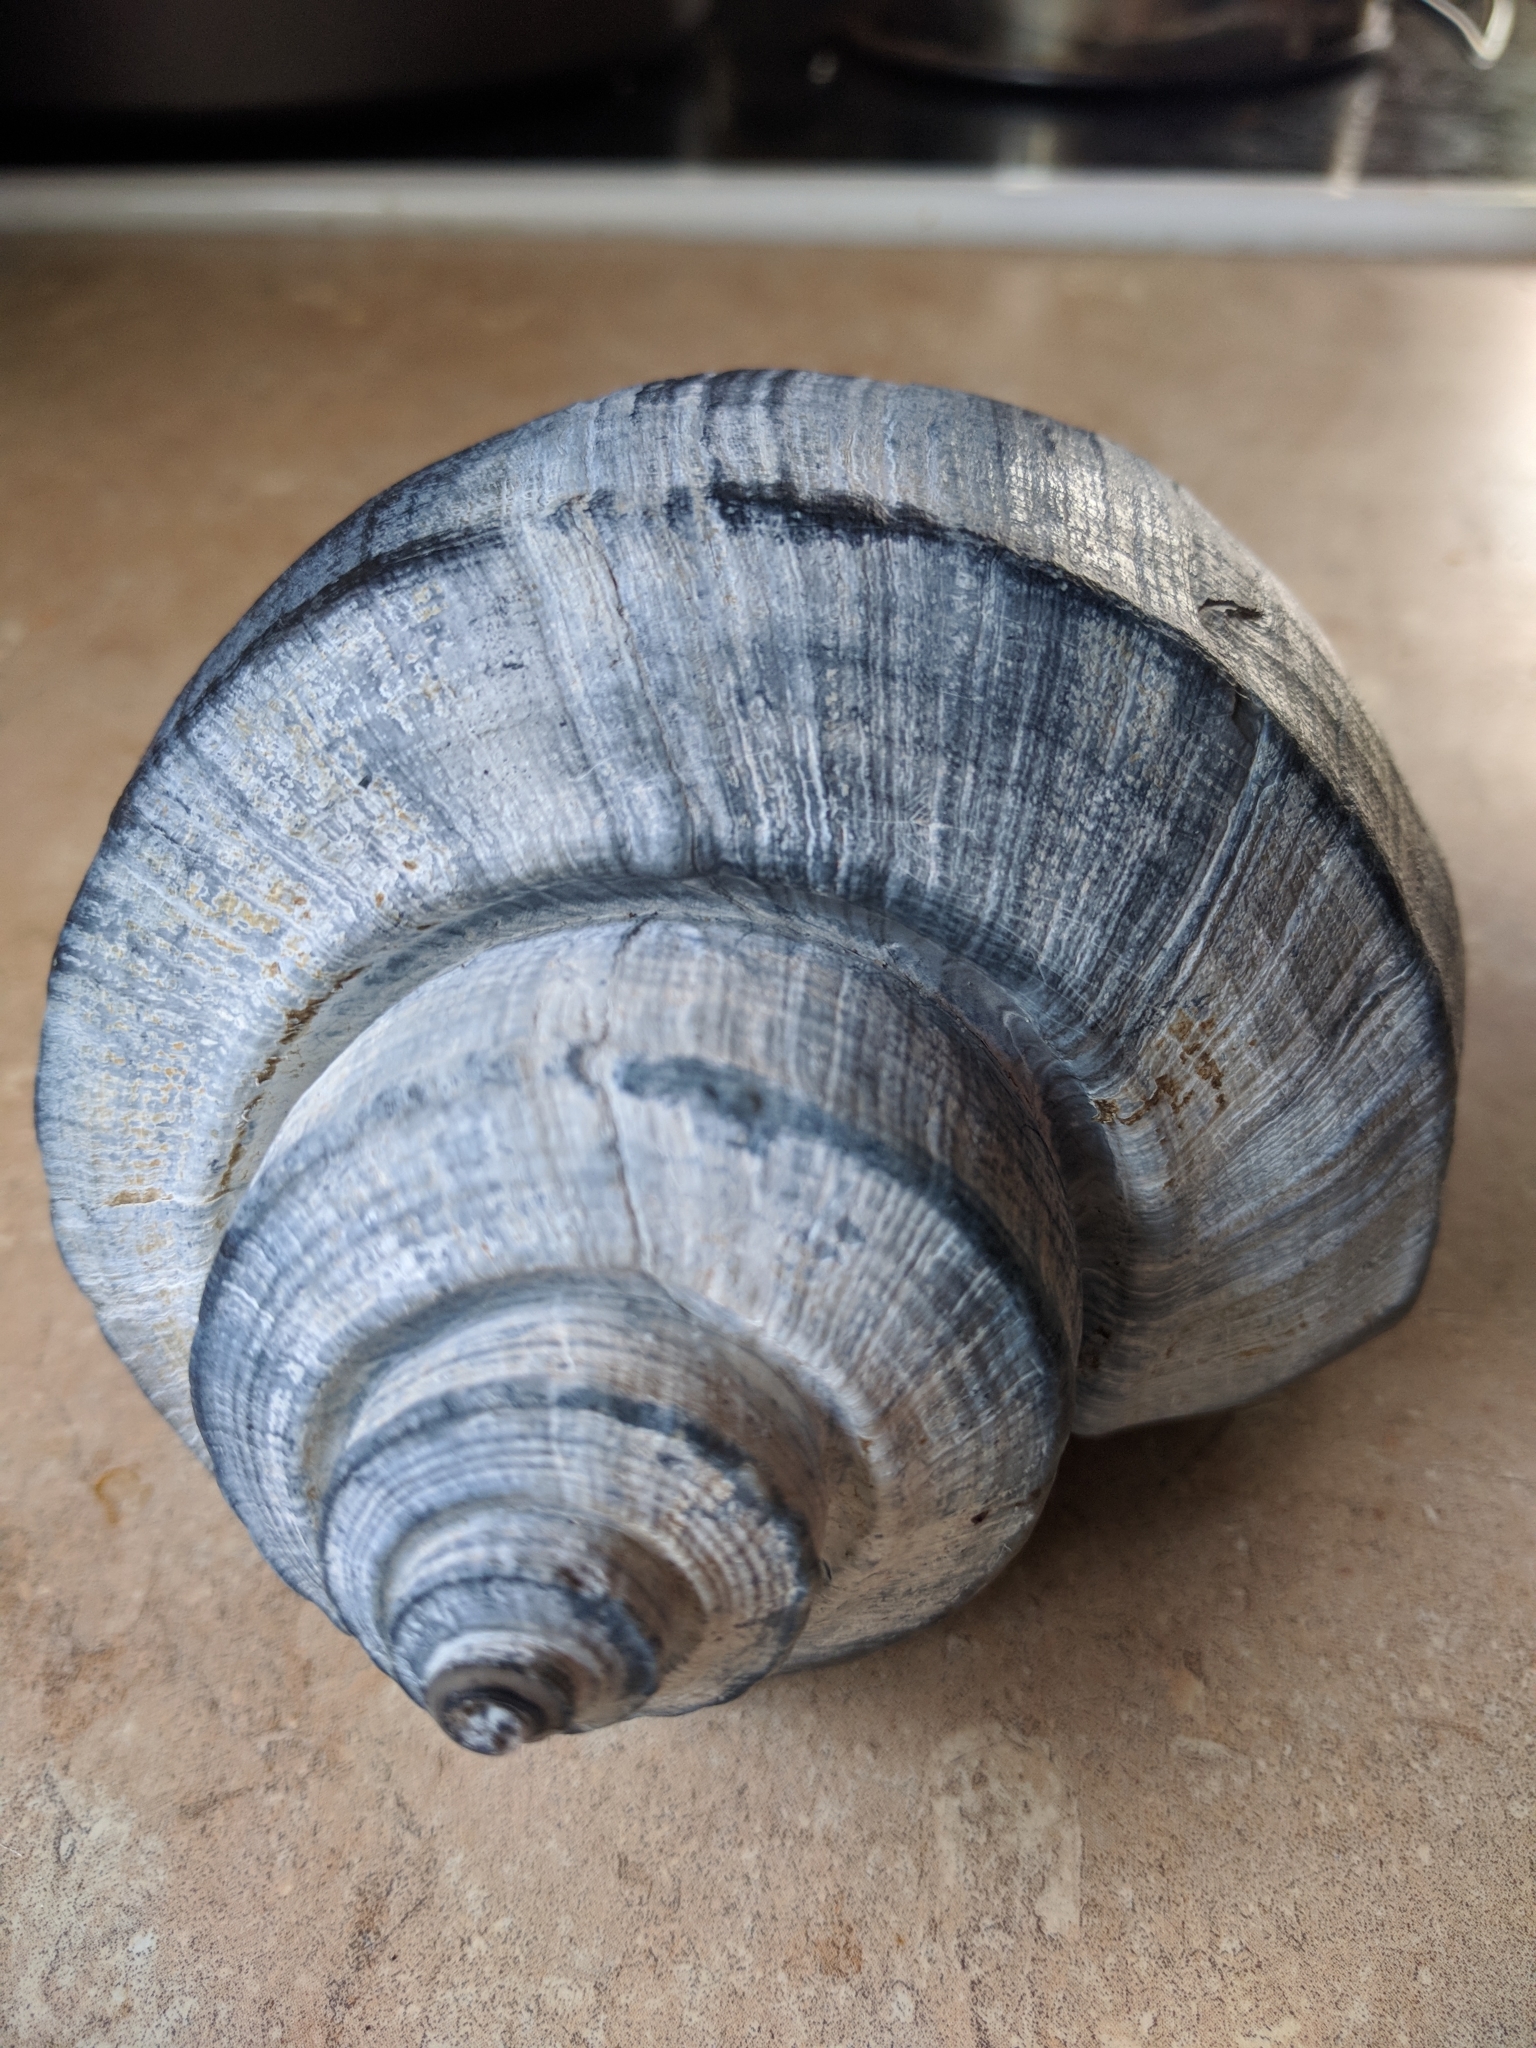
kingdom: Animalia
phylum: Mollusca
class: Gastropoda
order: Neogastropoda
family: Busyconidae
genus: Busycotypus
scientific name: Busycotypus canaliculatus
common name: Channeled whelk
